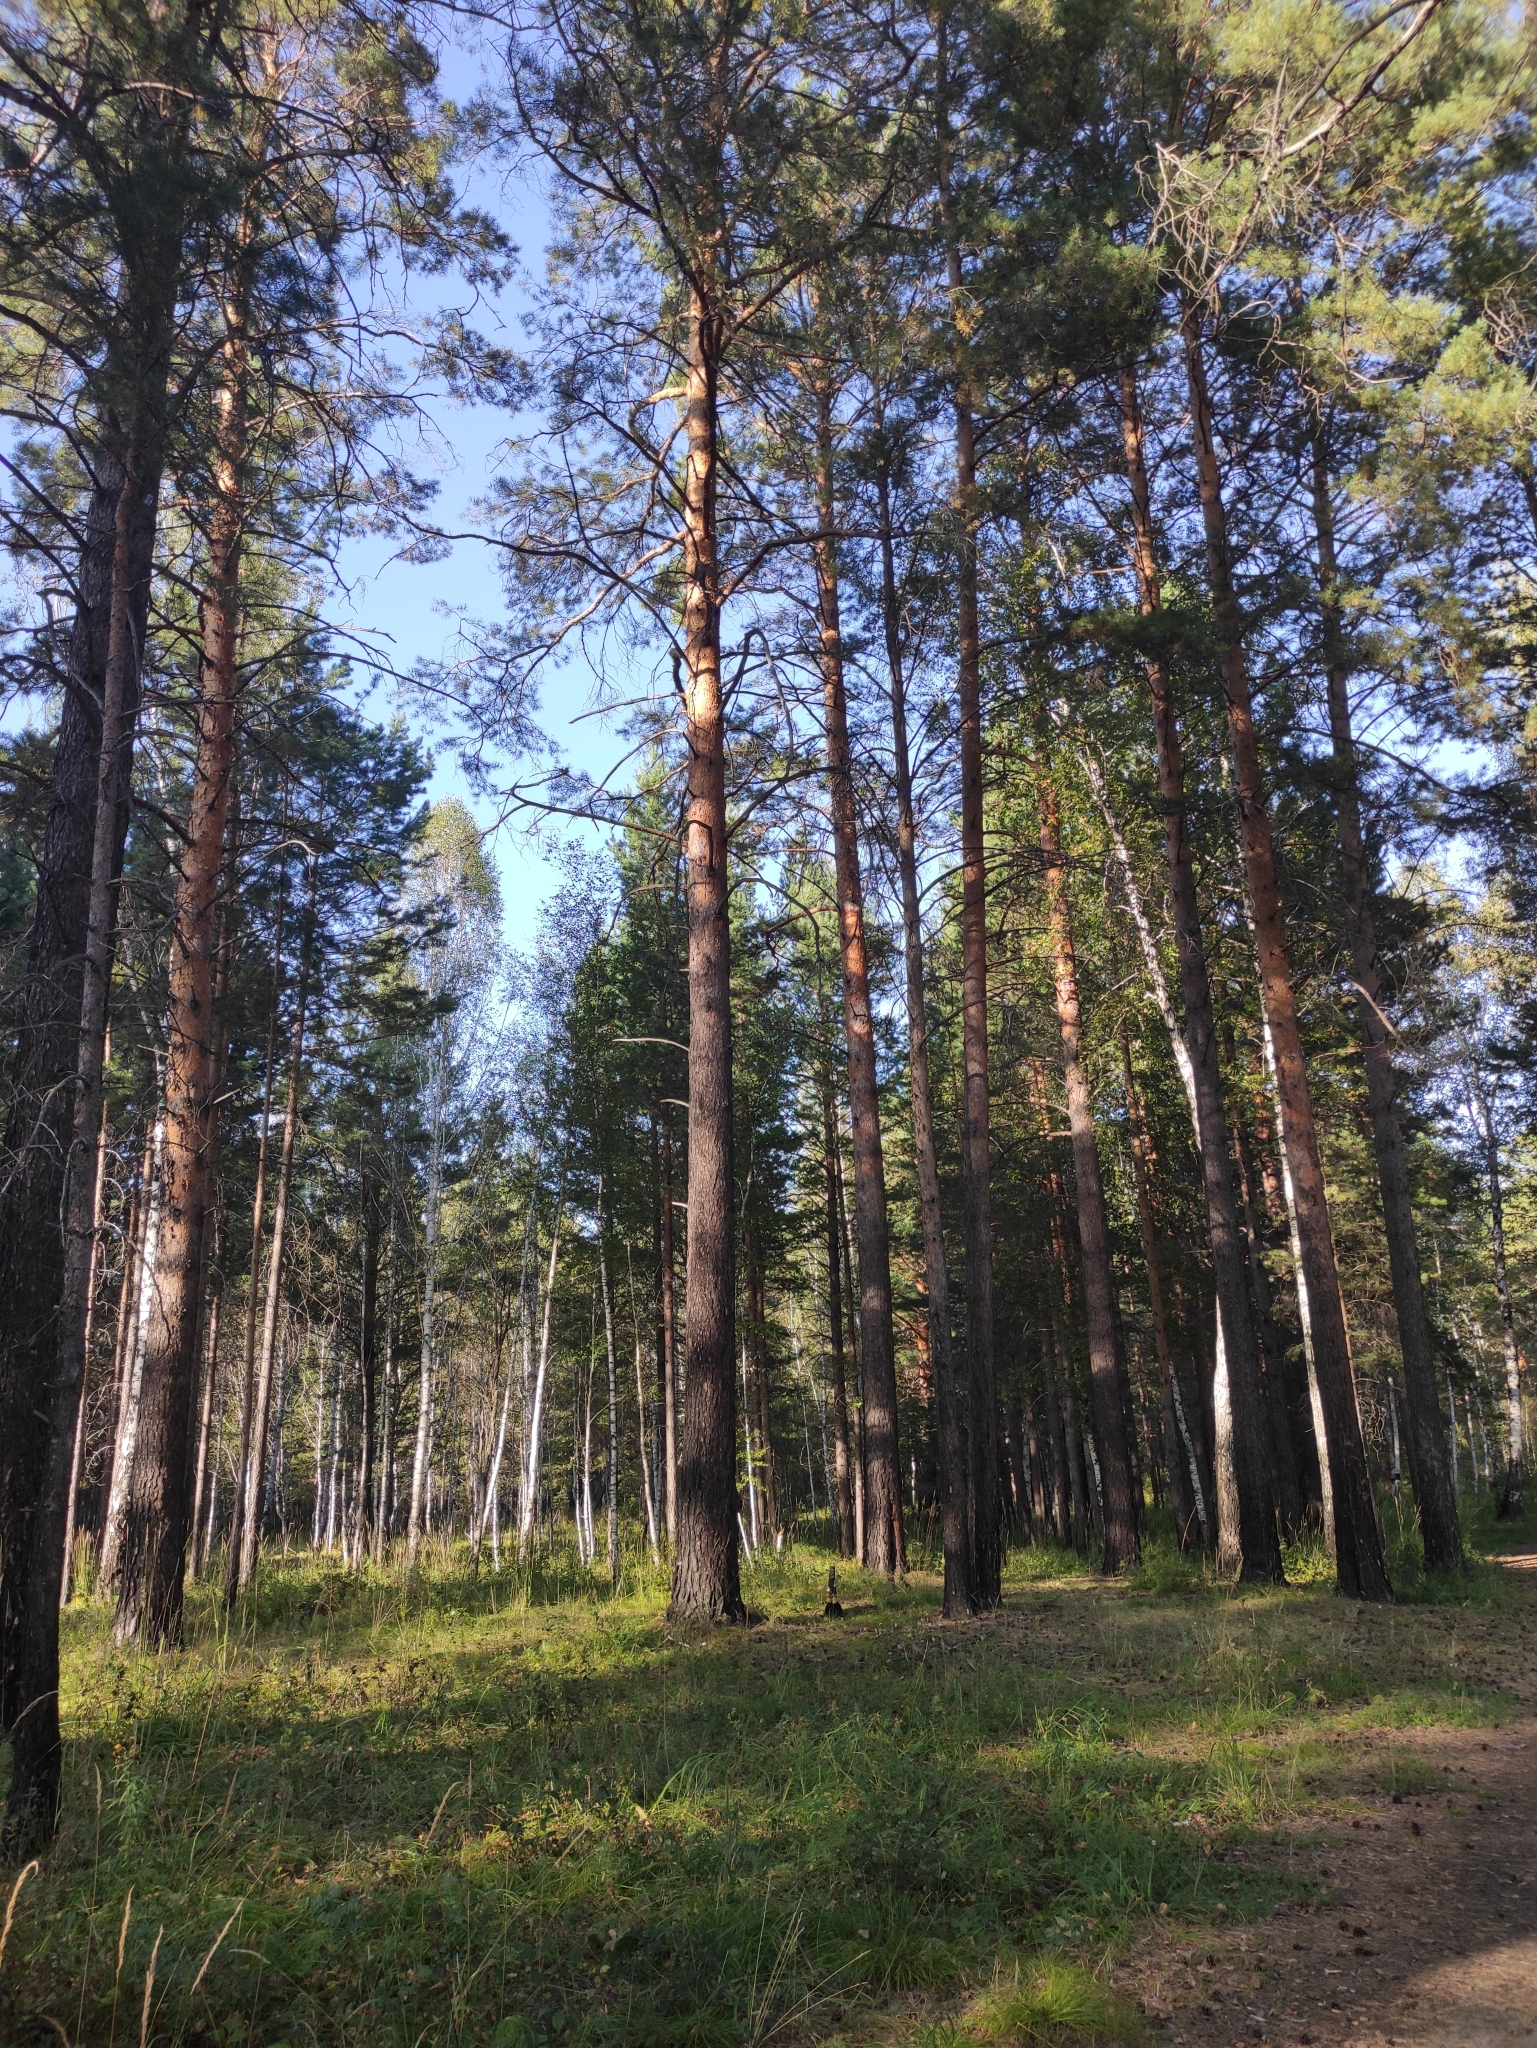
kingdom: Plantae
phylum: Tracheophyta
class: Pinopsida
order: Pinales
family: Pinaceae
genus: Pinus
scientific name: Pinus sylvestris
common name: Scots pine
